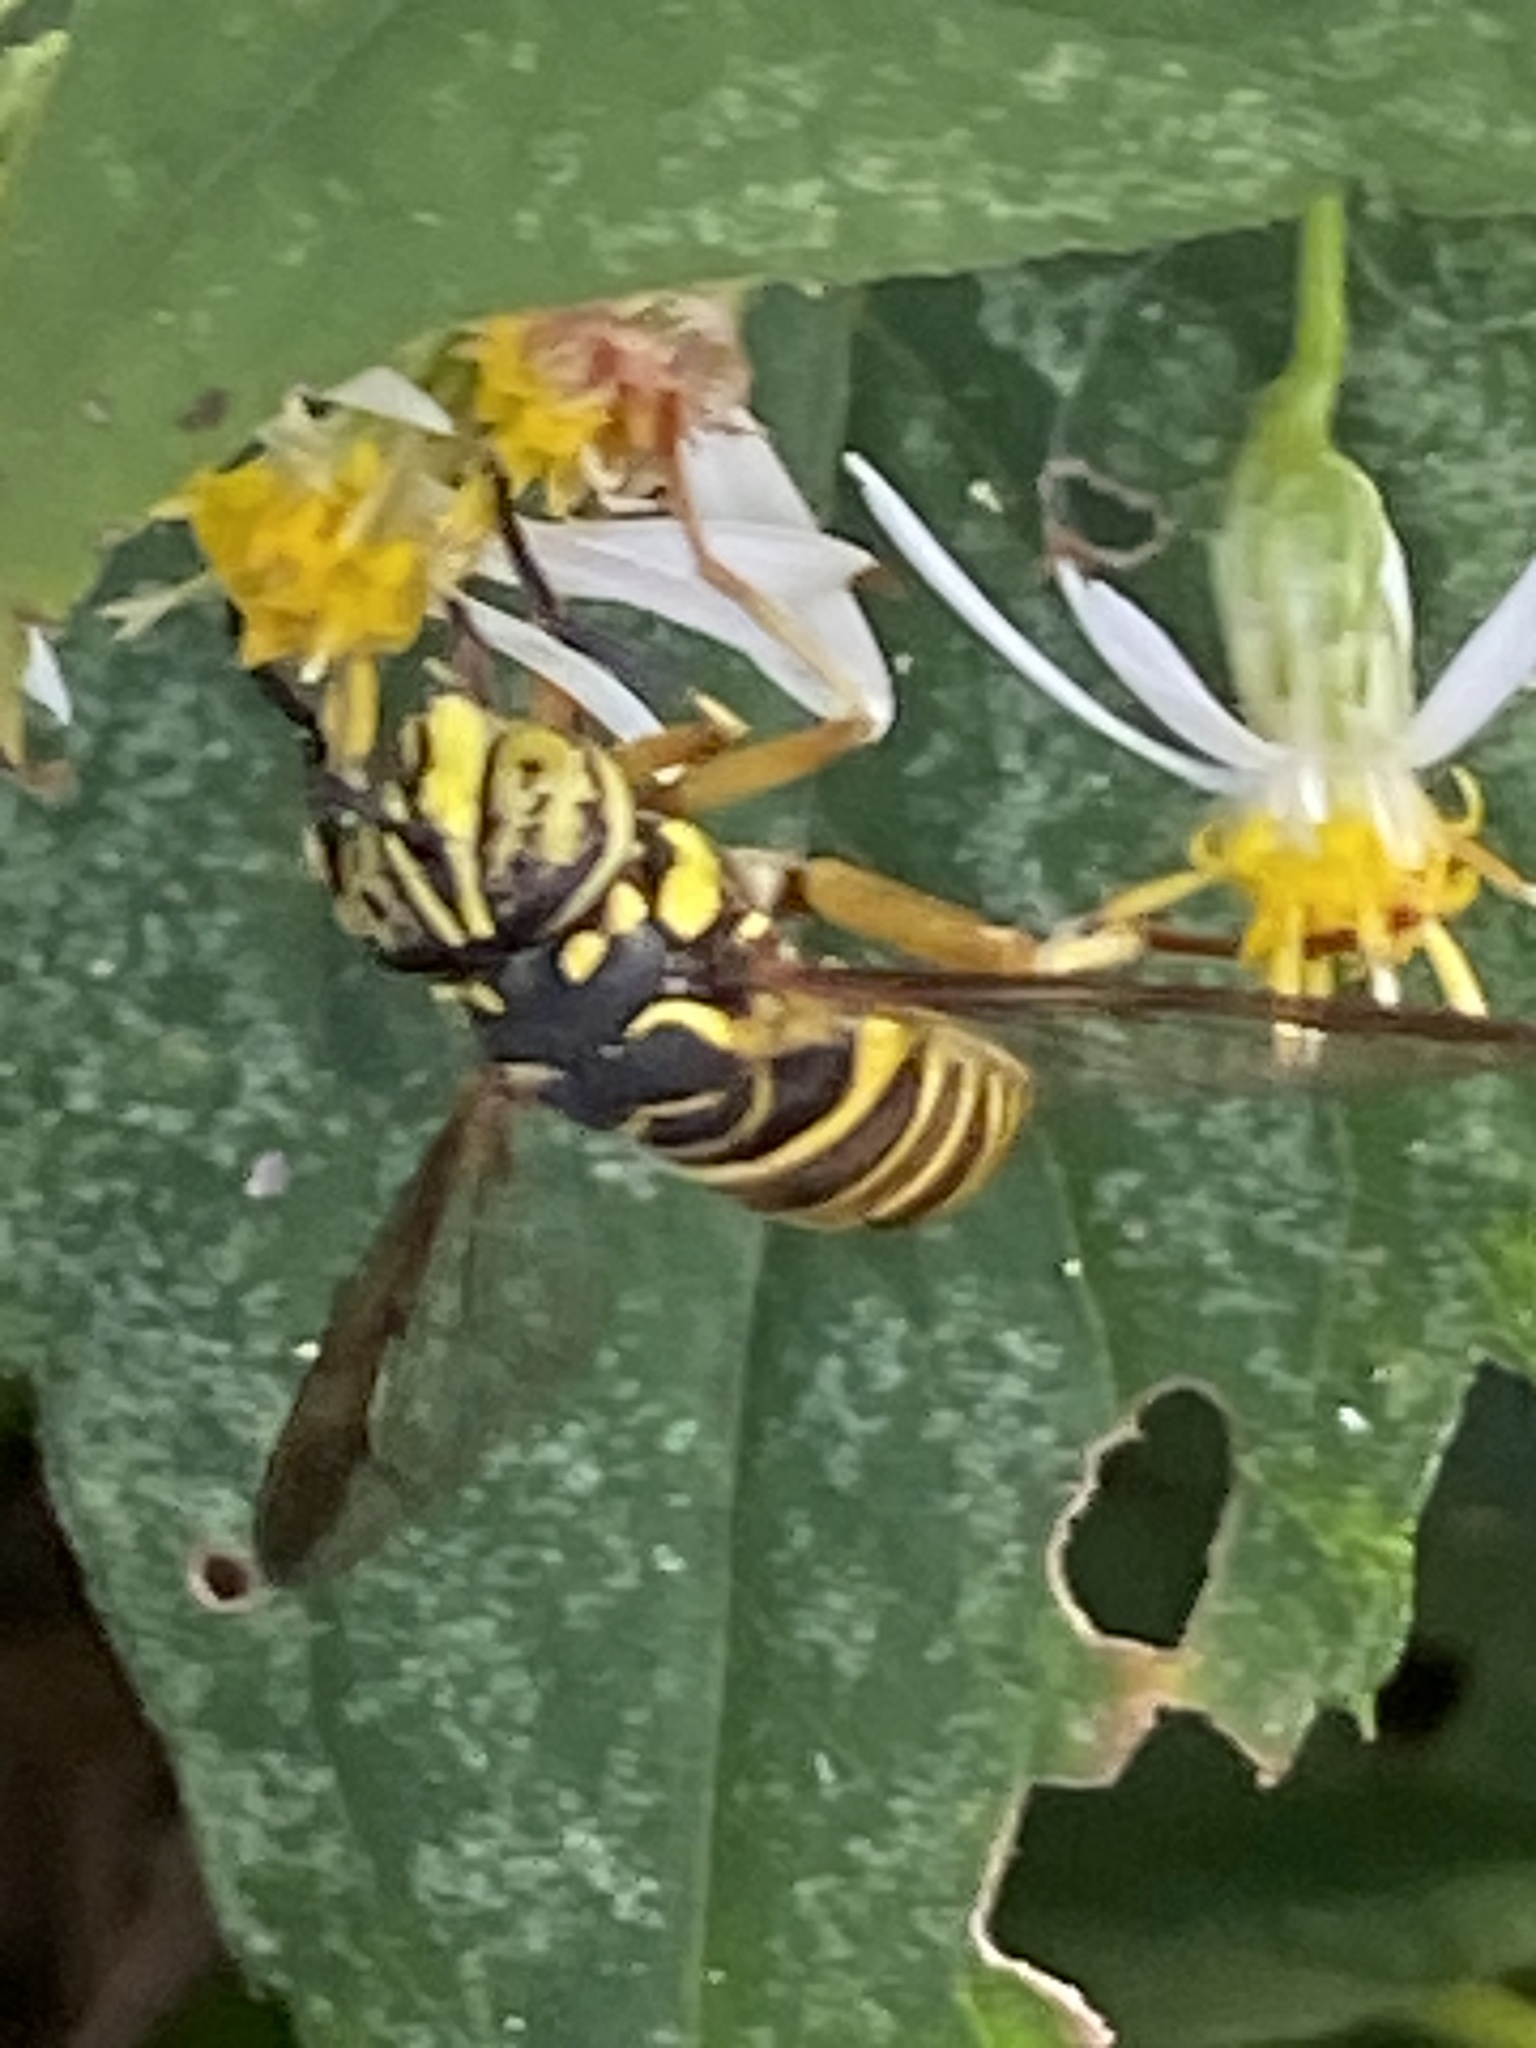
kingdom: Animalia
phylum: Arthropoda
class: Insecta
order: Diptera
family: Syrphidae
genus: Spilomyia
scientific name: Spilomyia longicornis
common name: Eastern hornet fly
